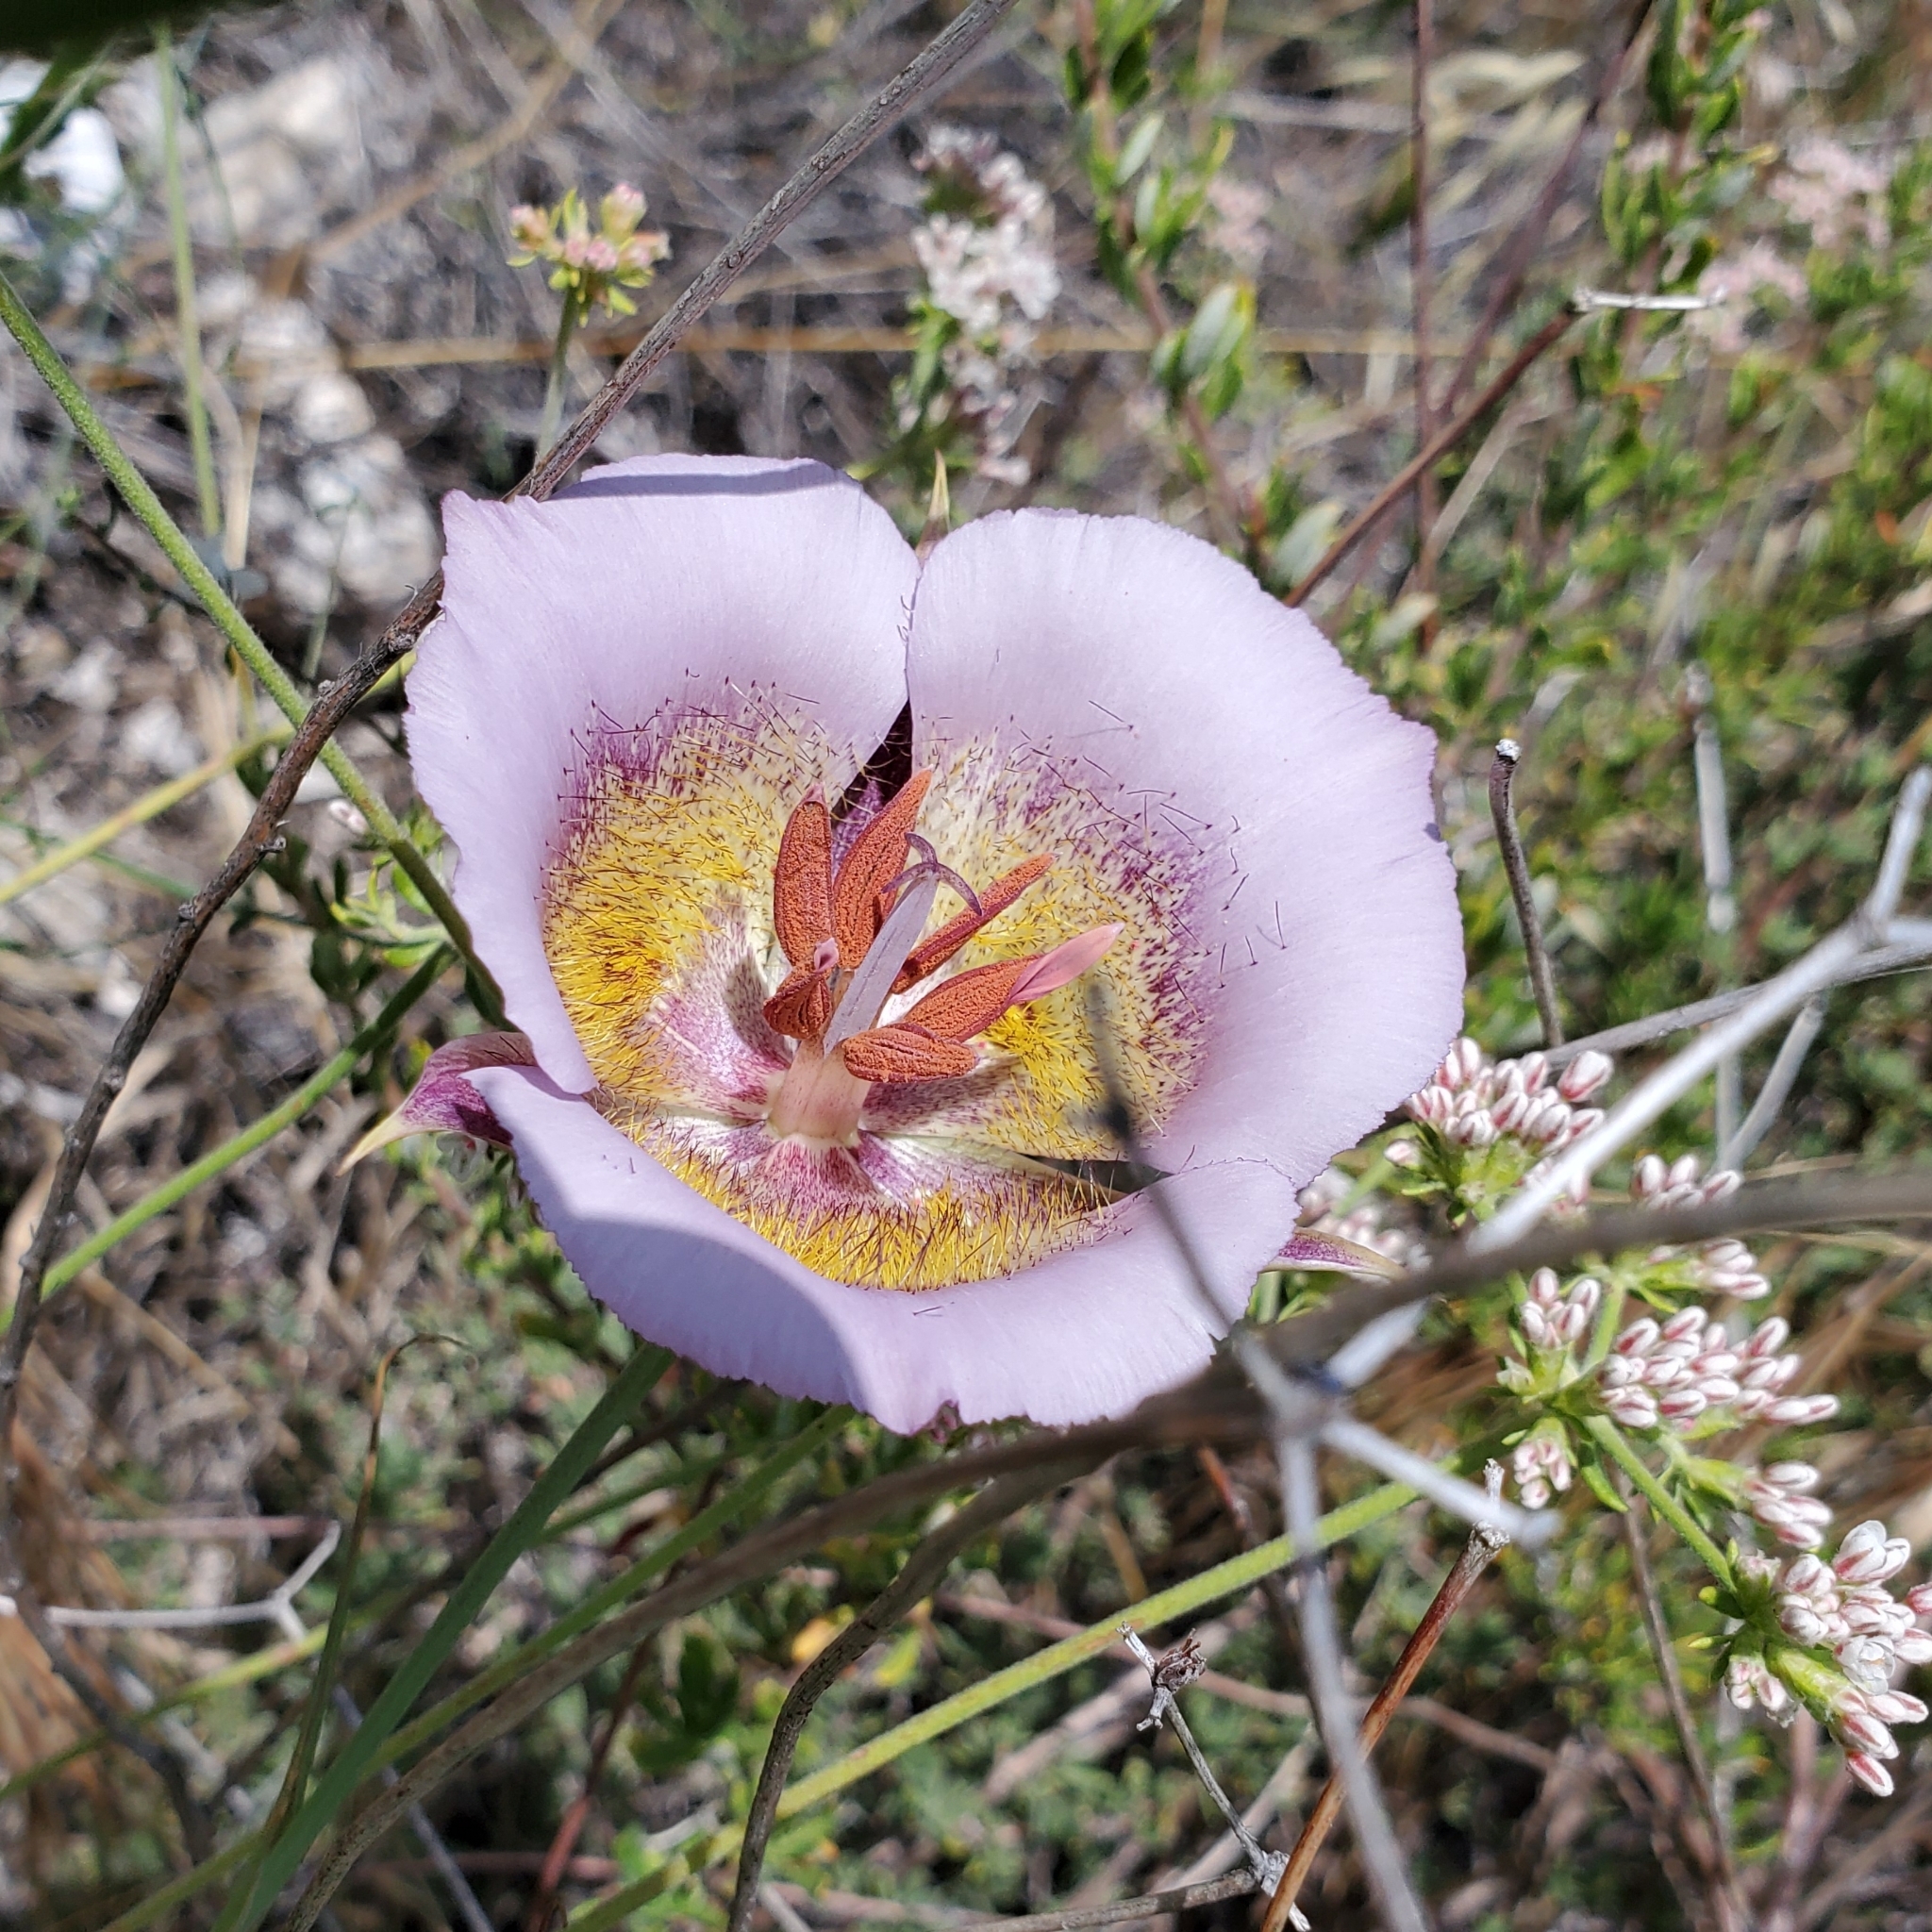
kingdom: Plantae
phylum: Tracheophyta
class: Liliopsida
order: Liliales
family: Liliaceae
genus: Calochortus
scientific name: Calochortus plummerae
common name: Plummer's mariposa-lily
